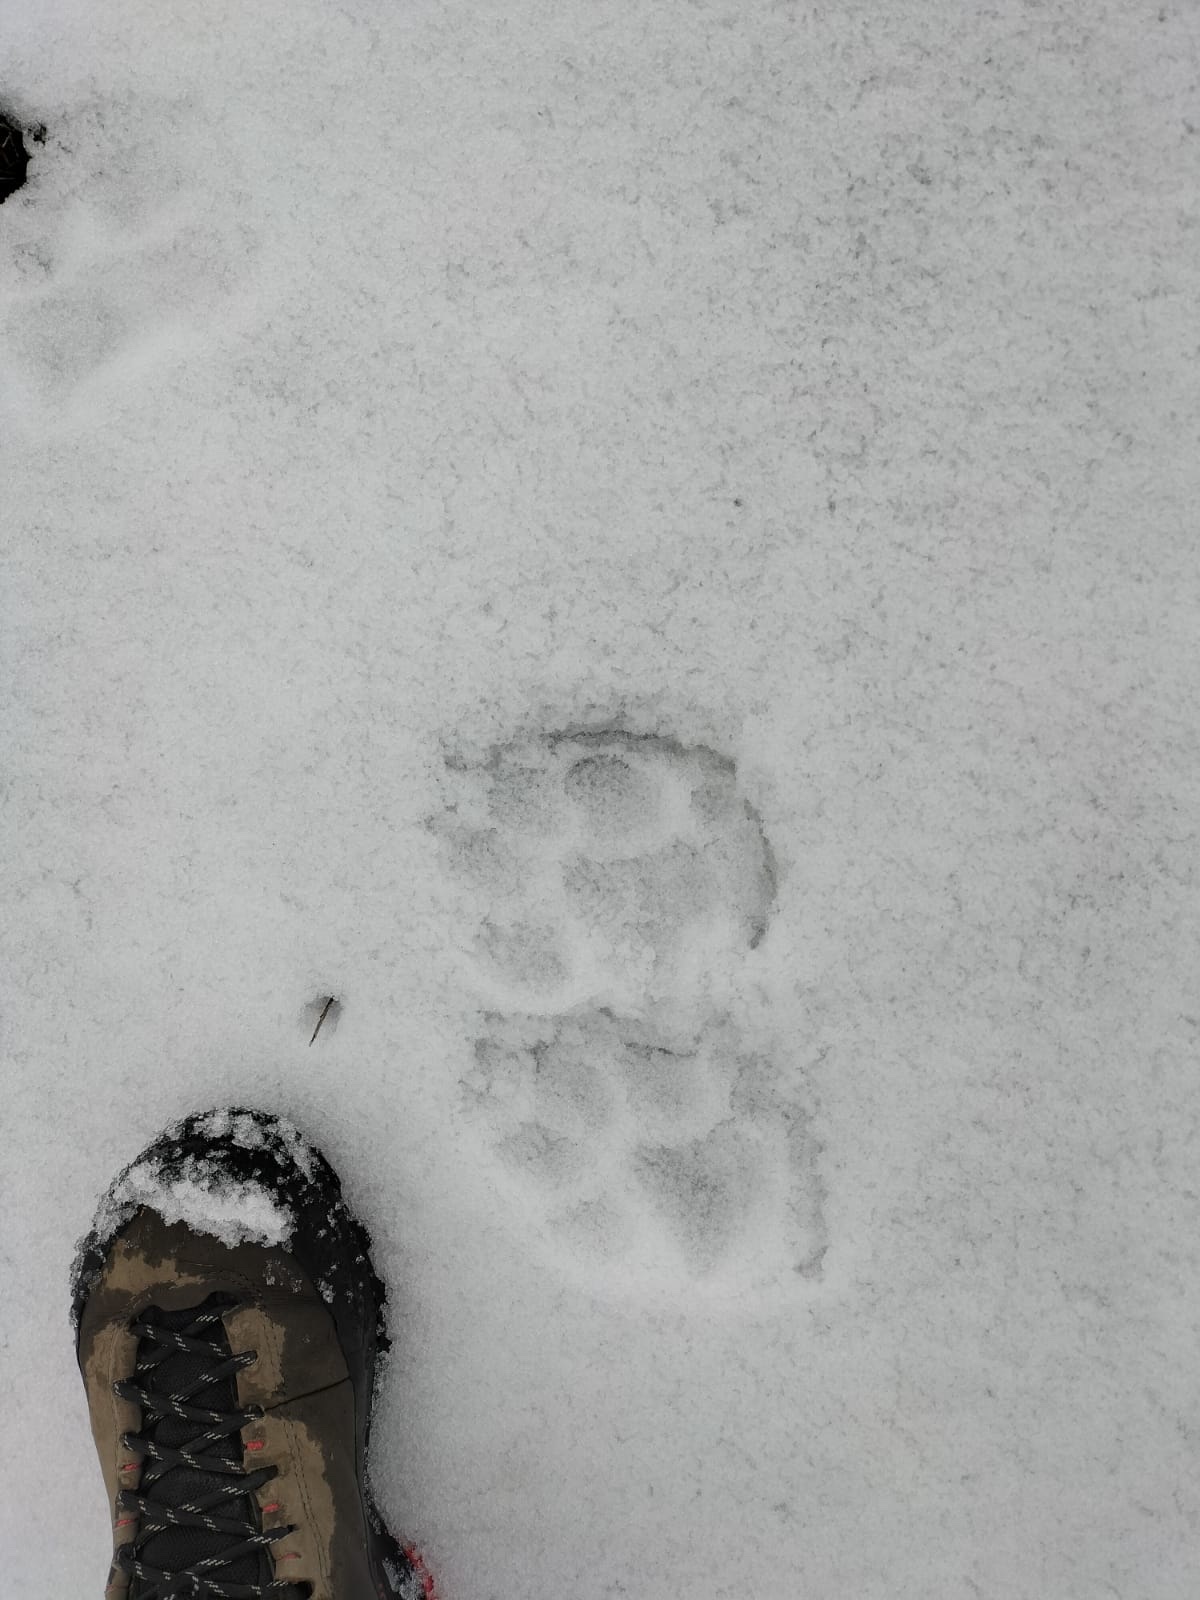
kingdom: Animalia
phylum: Chordata
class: Mammalia
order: Carnivora
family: Canidae
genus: Canis
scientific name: Canis
